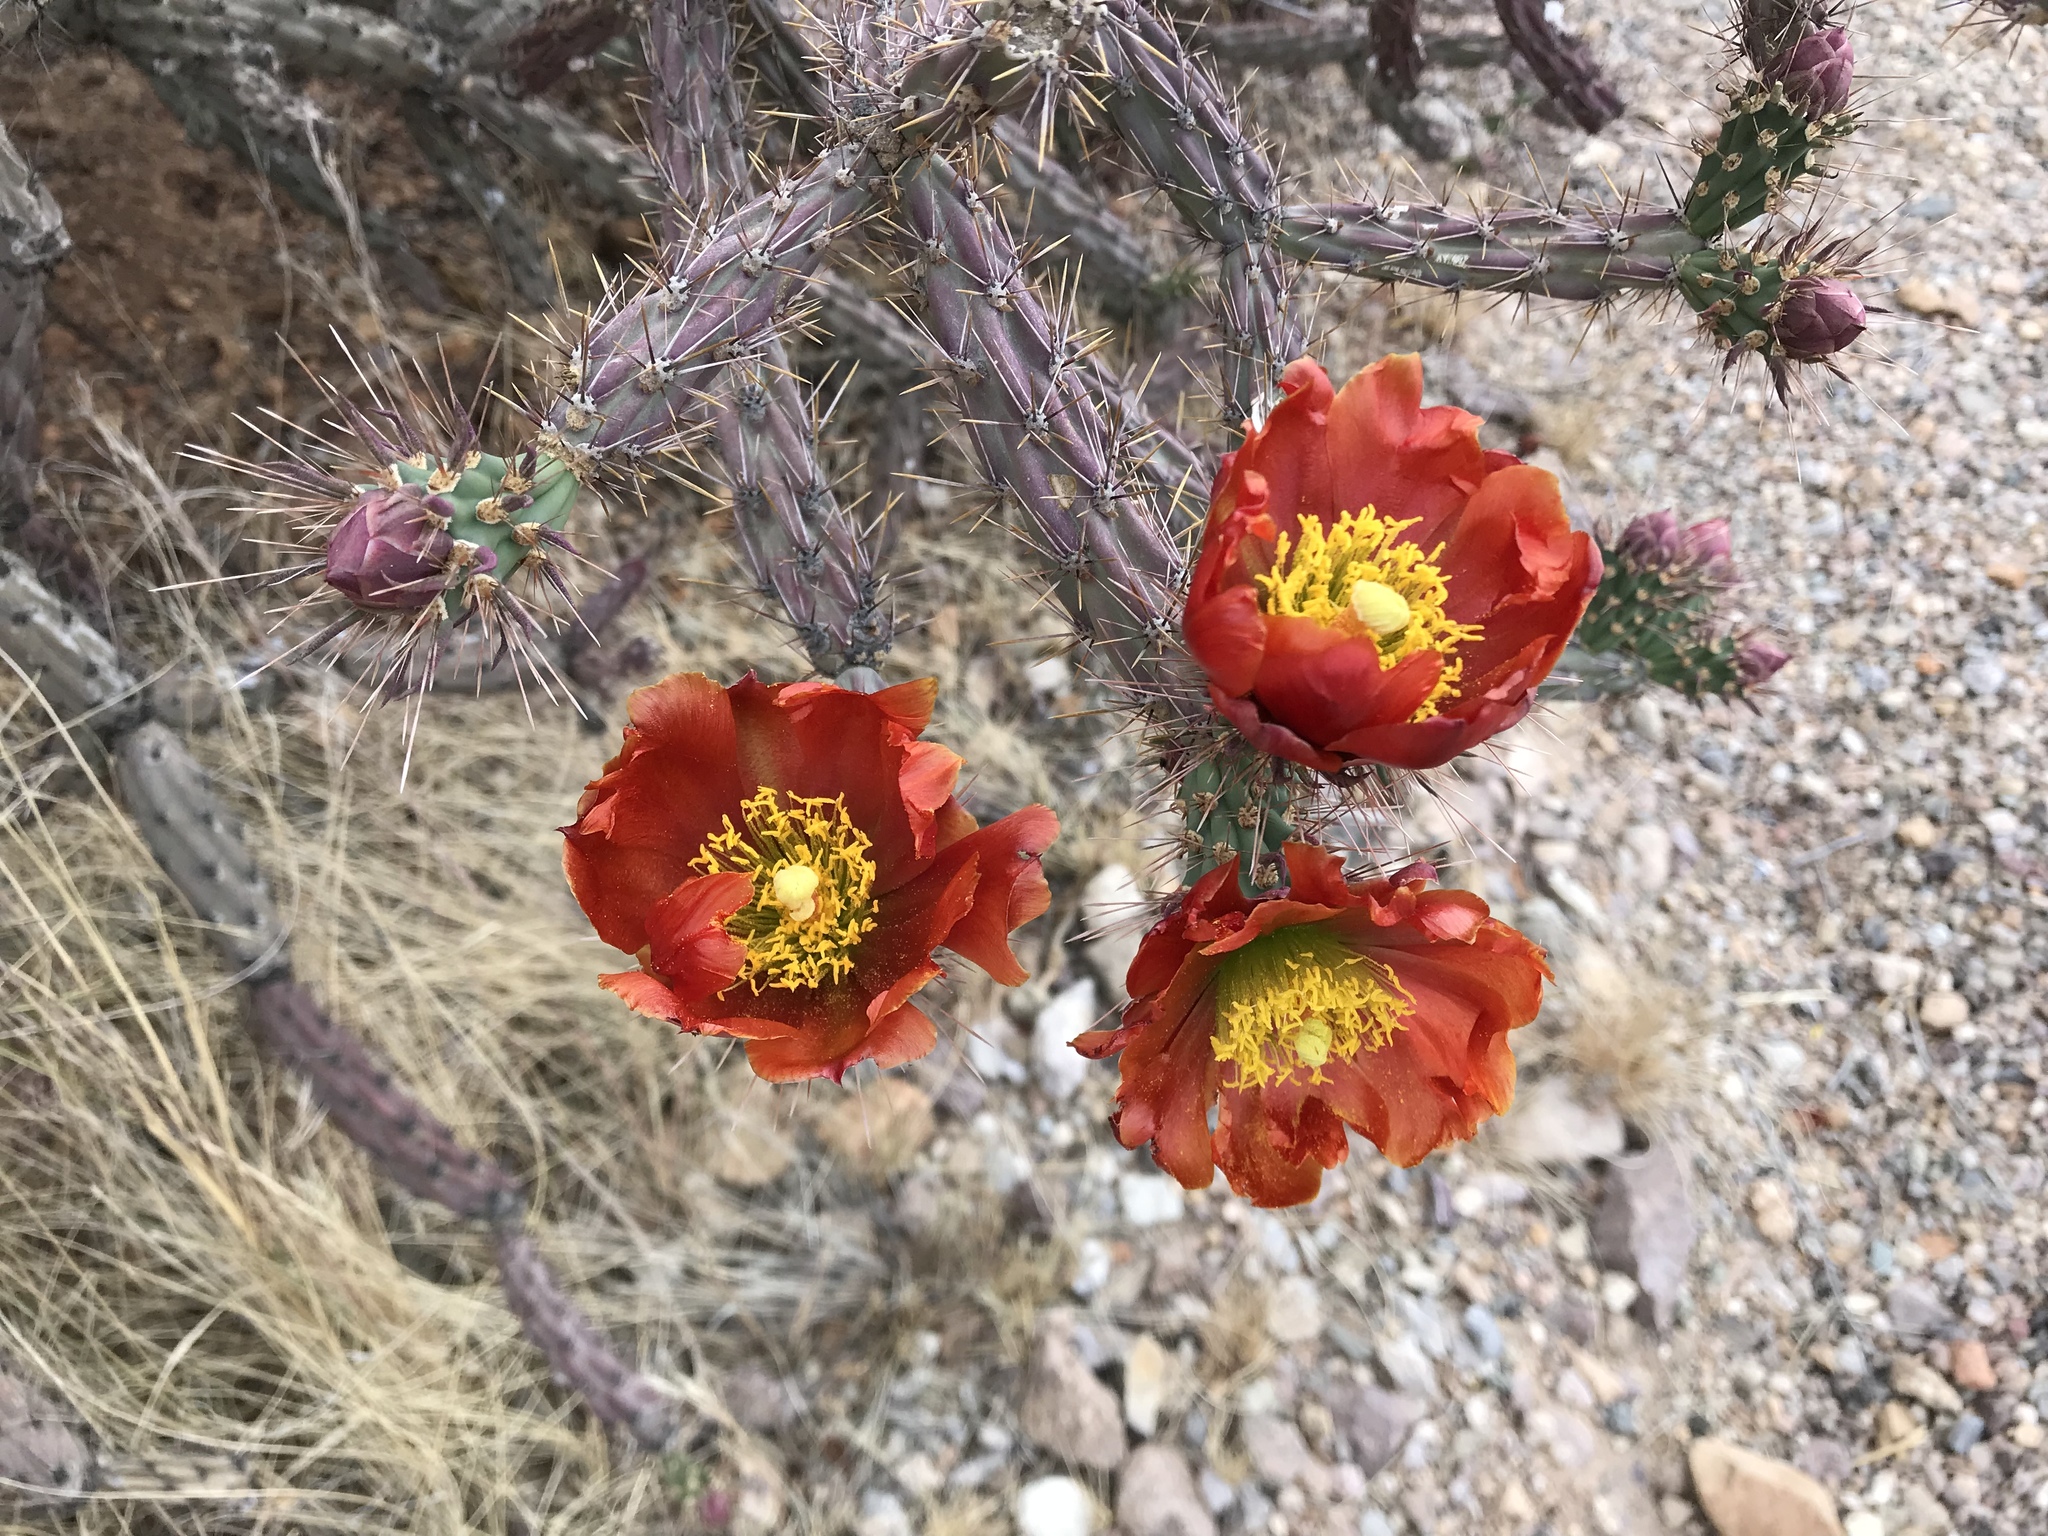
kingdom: Plantae
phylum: Tracheophyta
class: Magnoliopsida
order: Caryophyllales
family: Cactaceae
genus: Cylindropuntia
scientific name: Cylindropuntia thurberi
